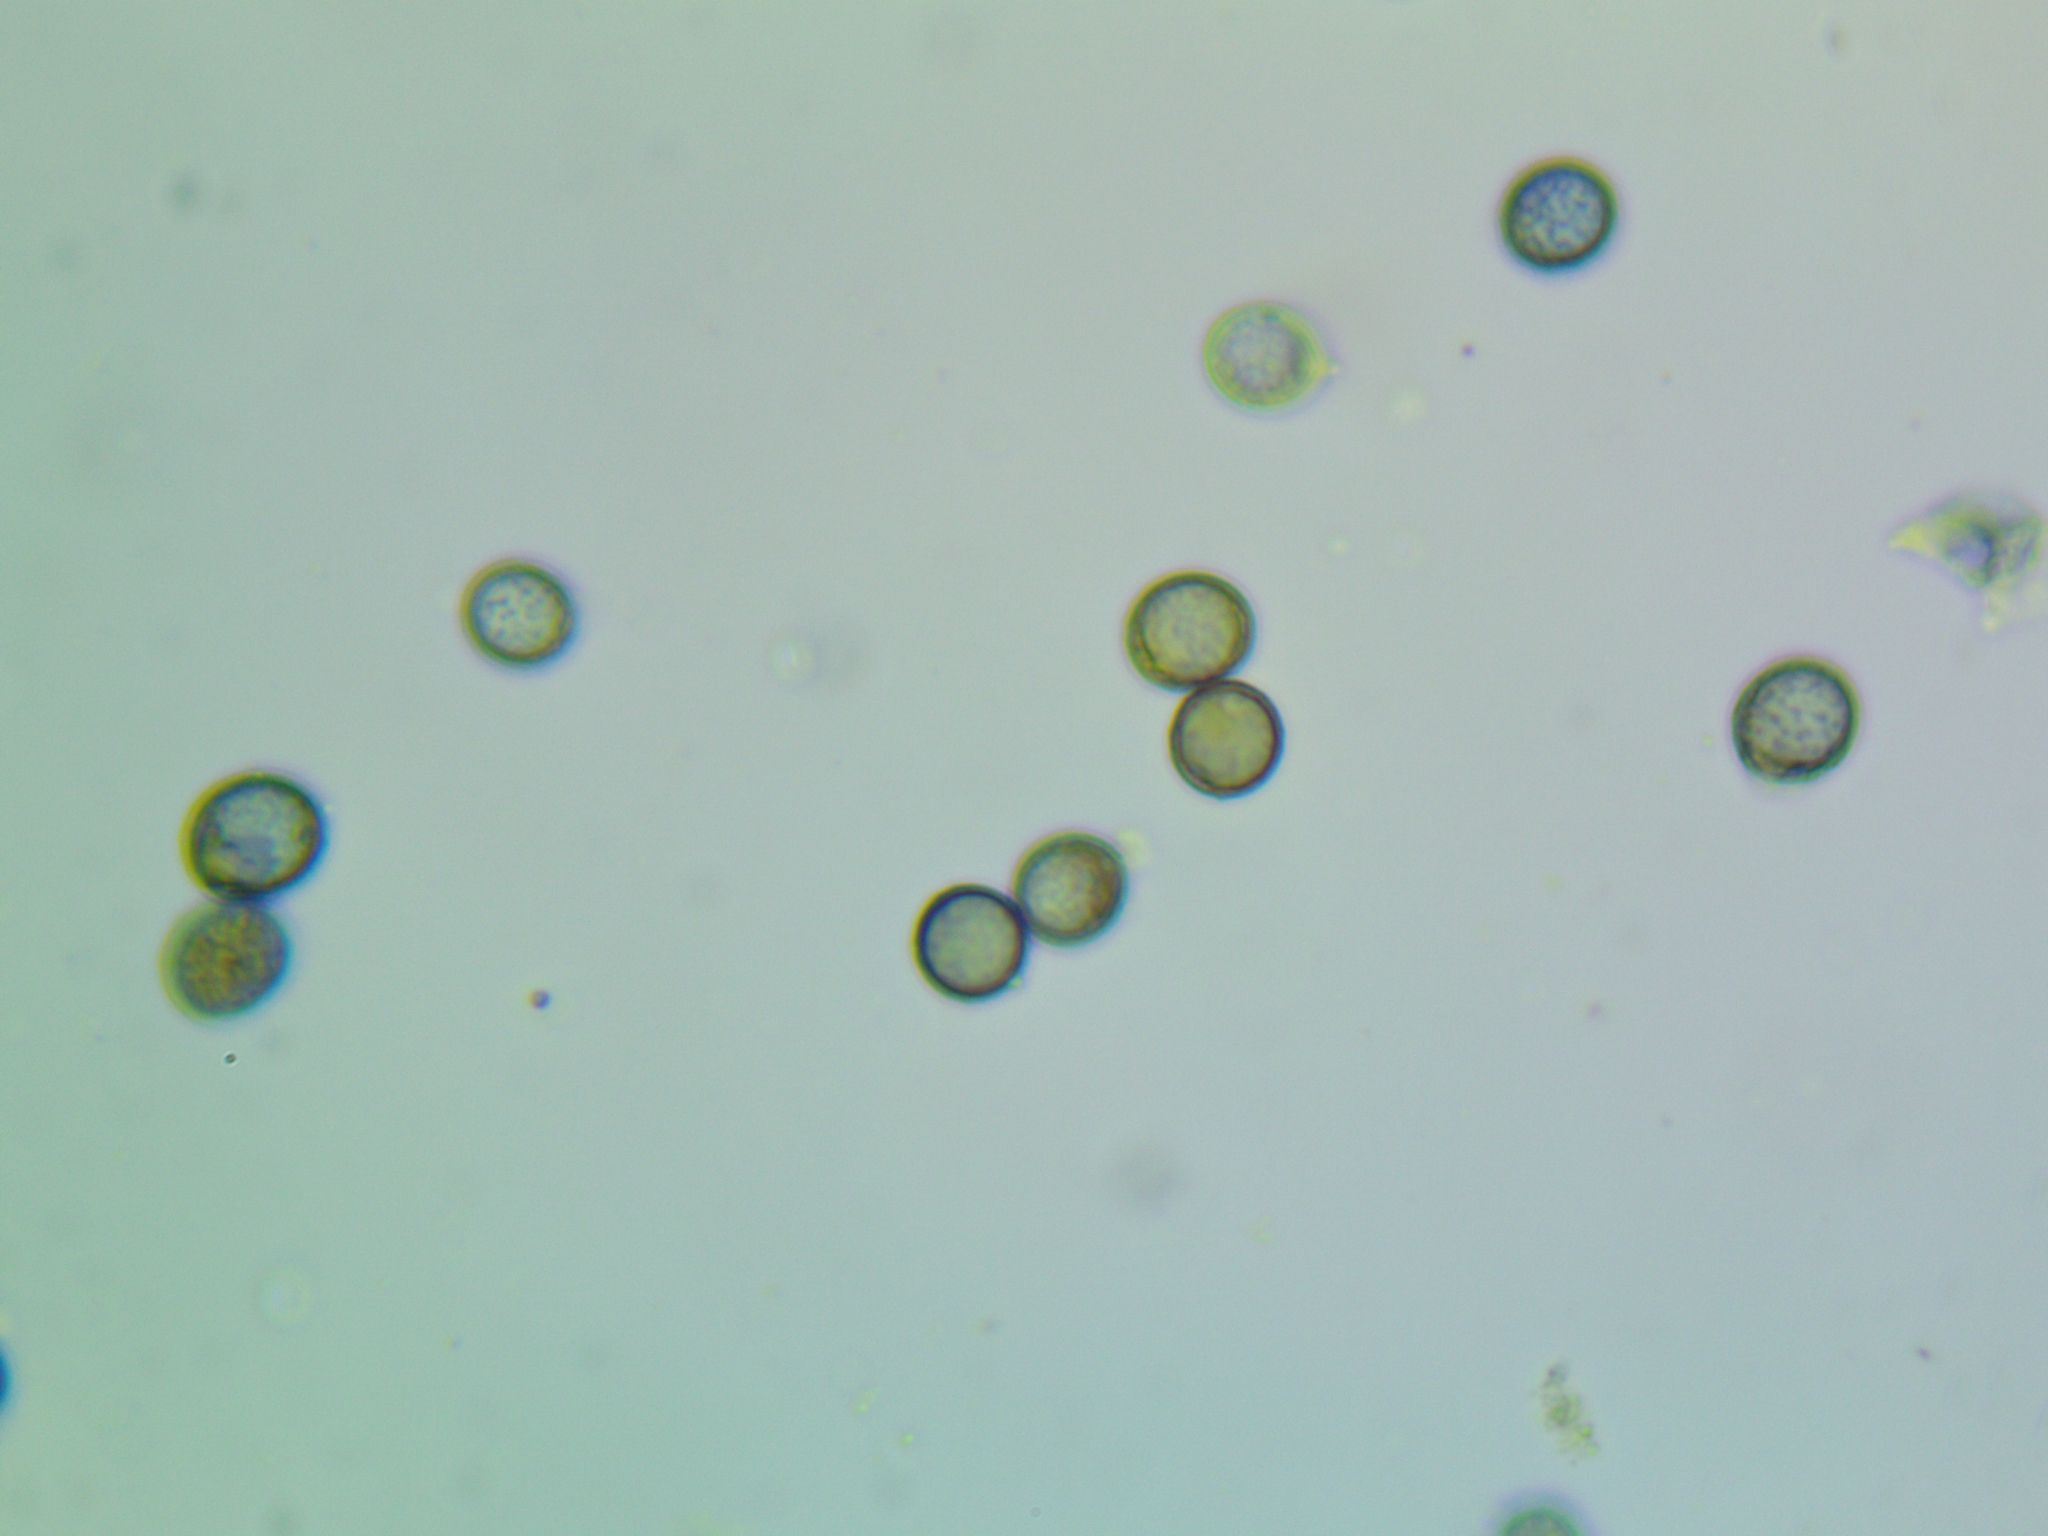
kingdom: Fungi
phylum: Basidiomycota
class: Agaricomycetes
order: Russulales
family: Russulaceae
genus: Russula
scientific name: Russula melliolens
